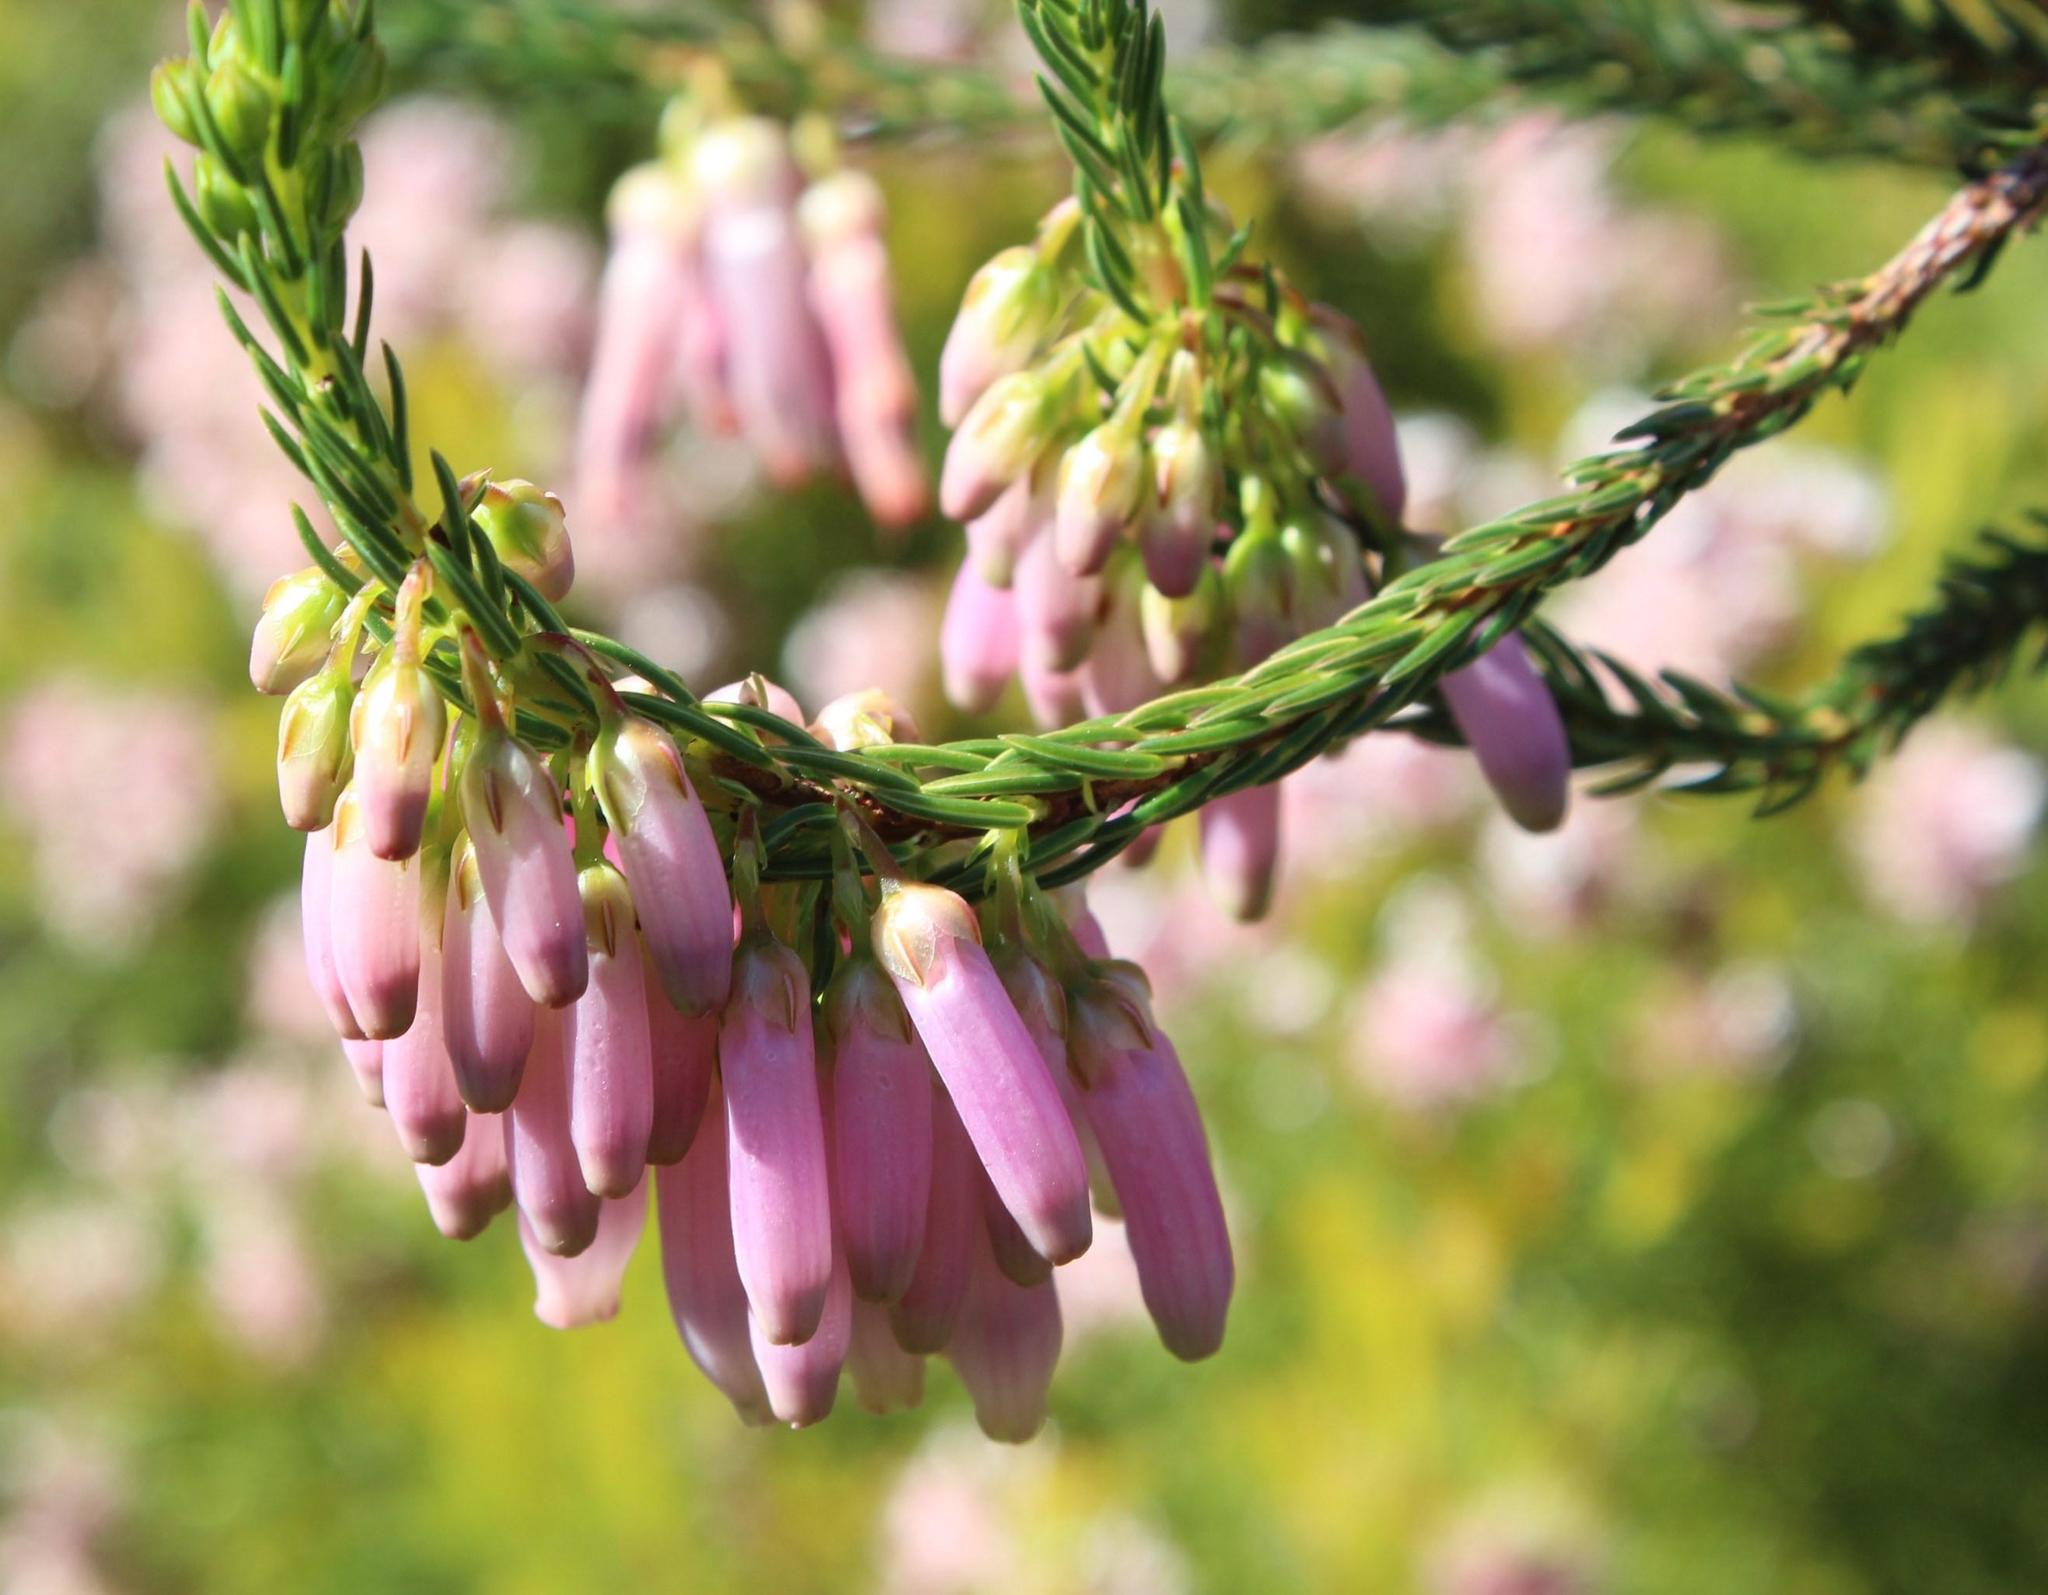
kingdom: Plantae
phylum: Tracheophyta
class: Magnoliopsida
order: Ericales
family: Ericaceae
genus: Erica
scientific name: Erica mammosa
